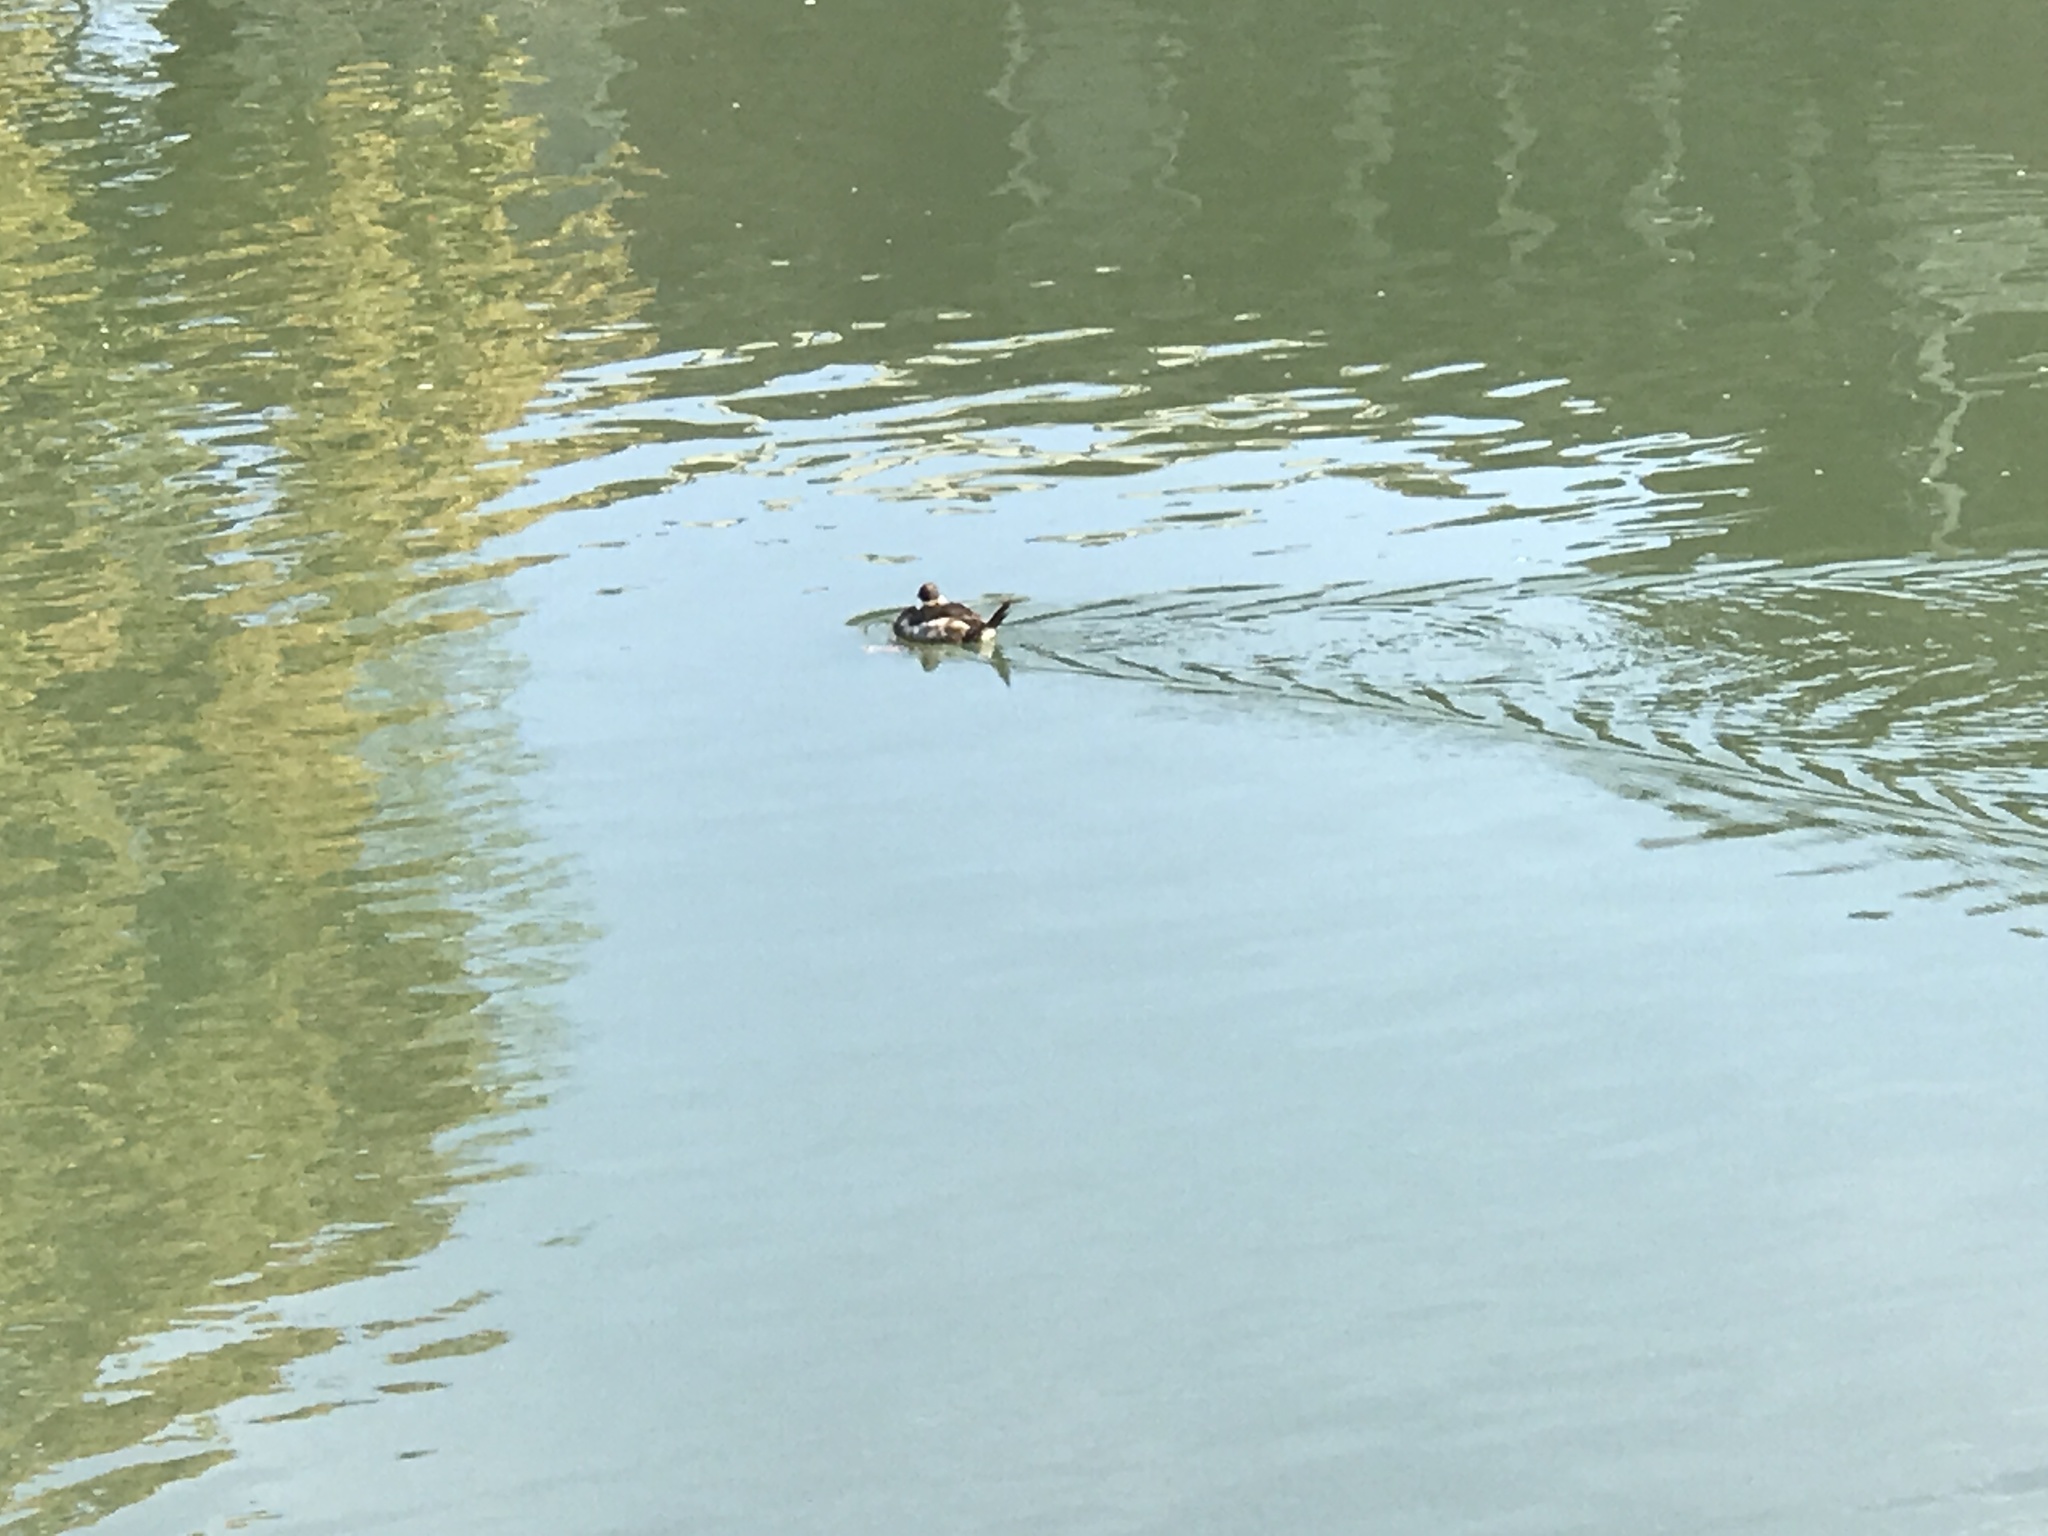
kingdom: Animalia
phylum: Chordata
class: Aves
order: Anseriformes
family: Anatidae
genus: Oxyura
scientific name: Oxyura jamaicensis
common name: Ruddy duck
